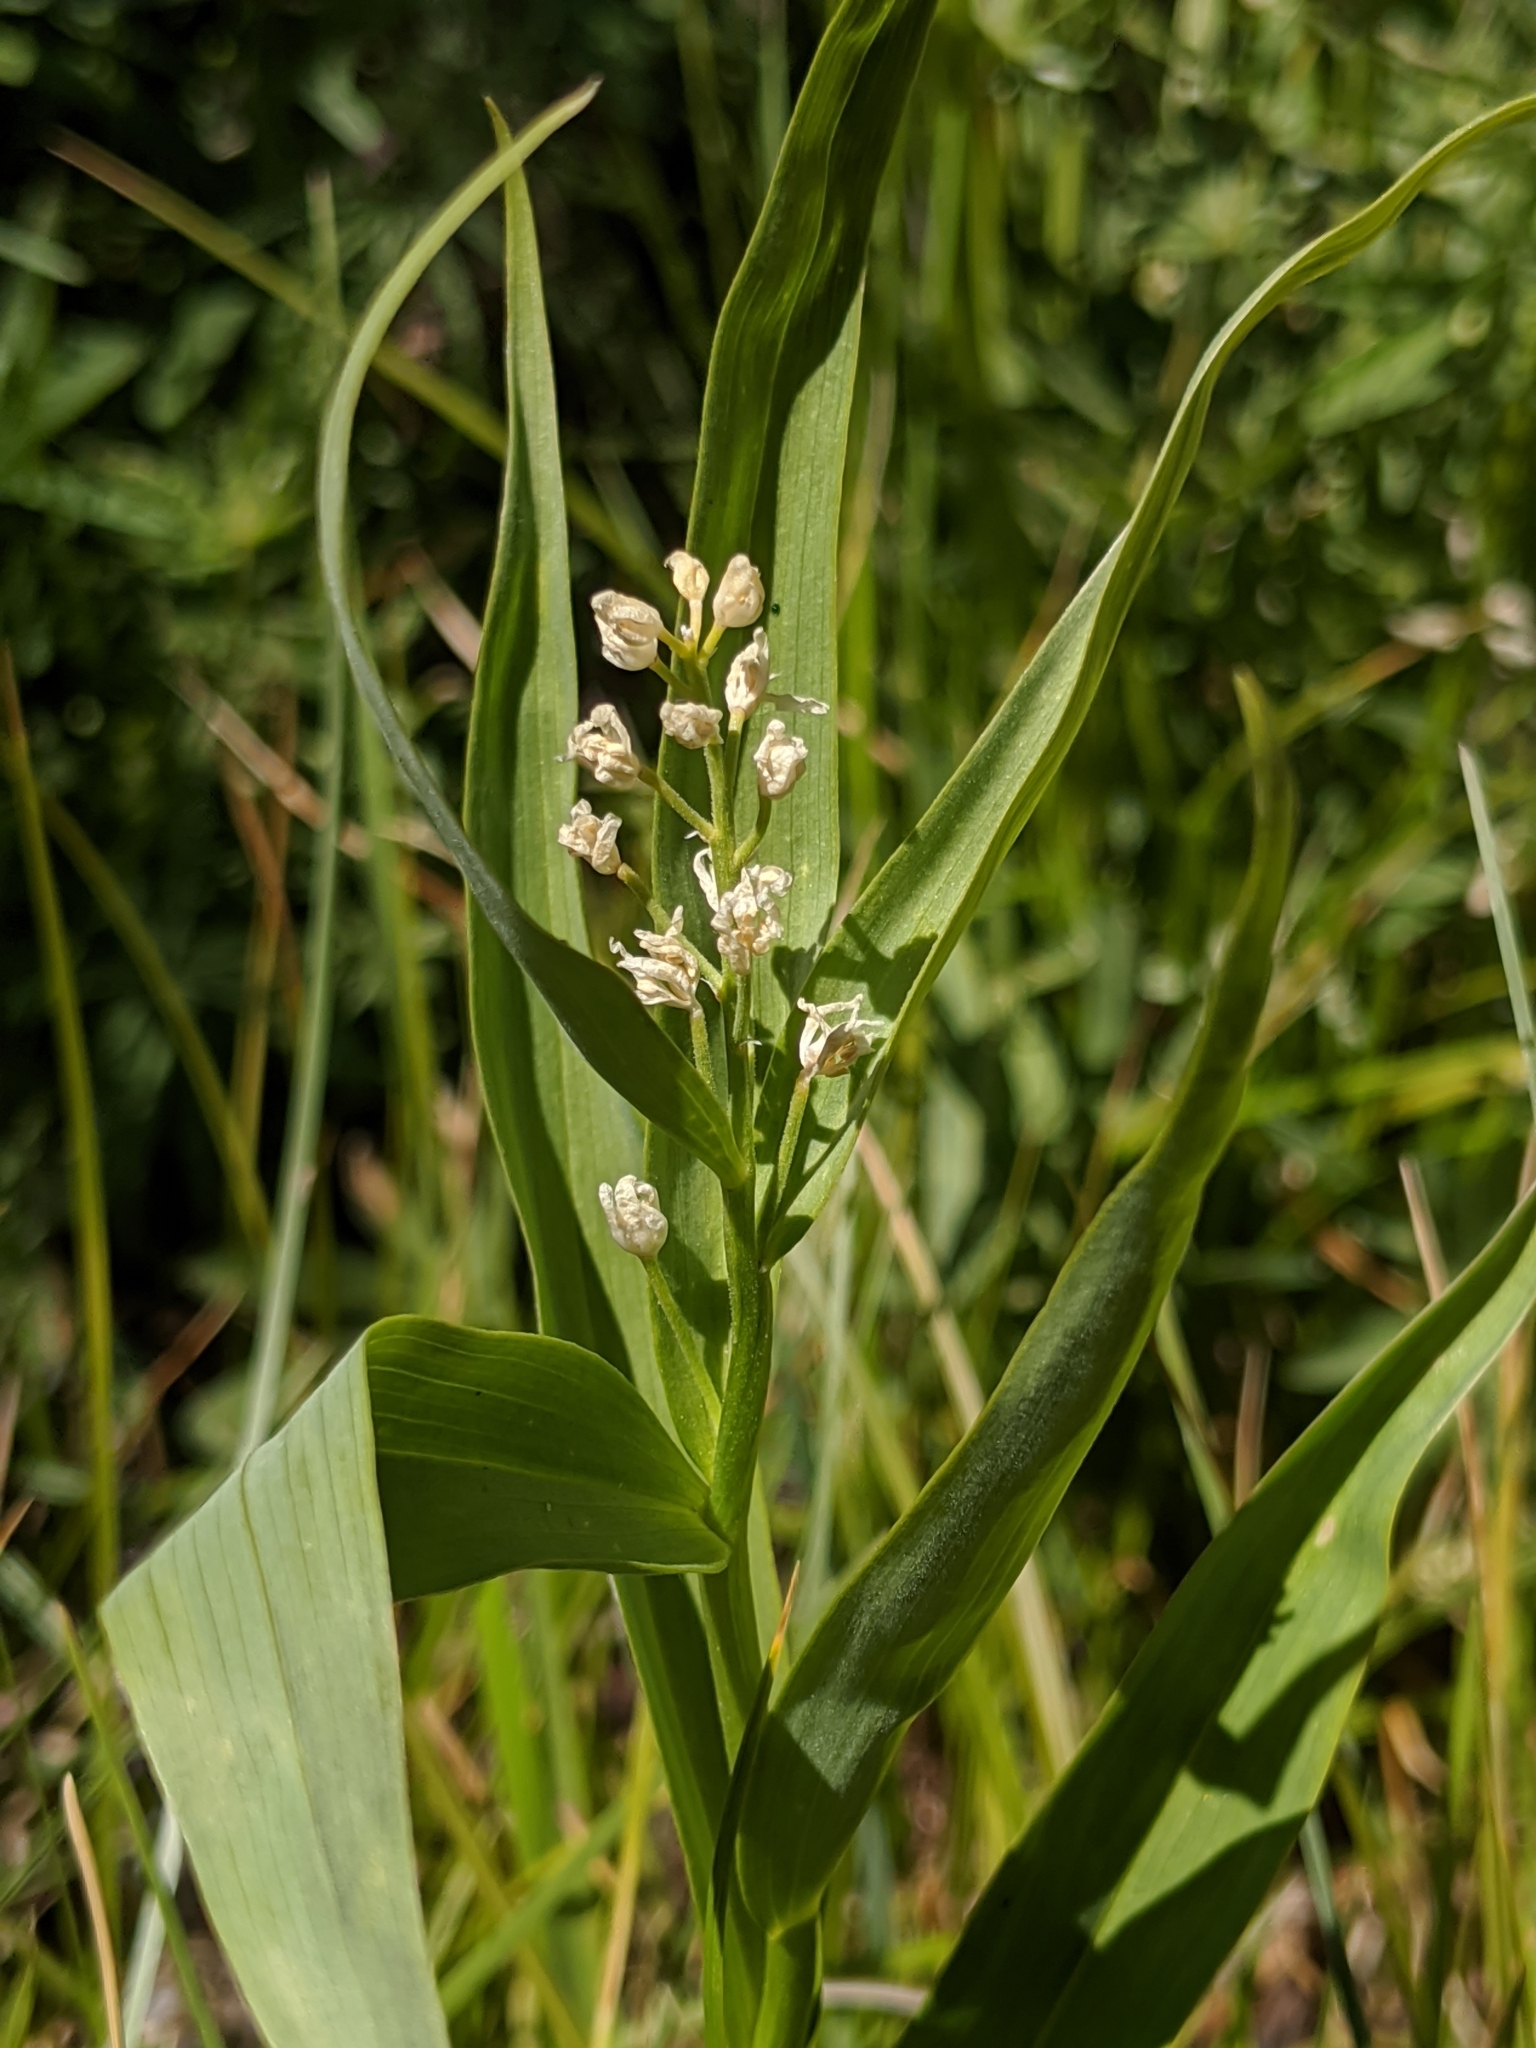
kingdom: Plantae
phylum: Tracheophyta
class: Liliopsida
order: Asparagales
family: Asparagaceae
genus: Maianthemum
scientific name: Maianthemum stellatum
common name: Little false solomon's seal
